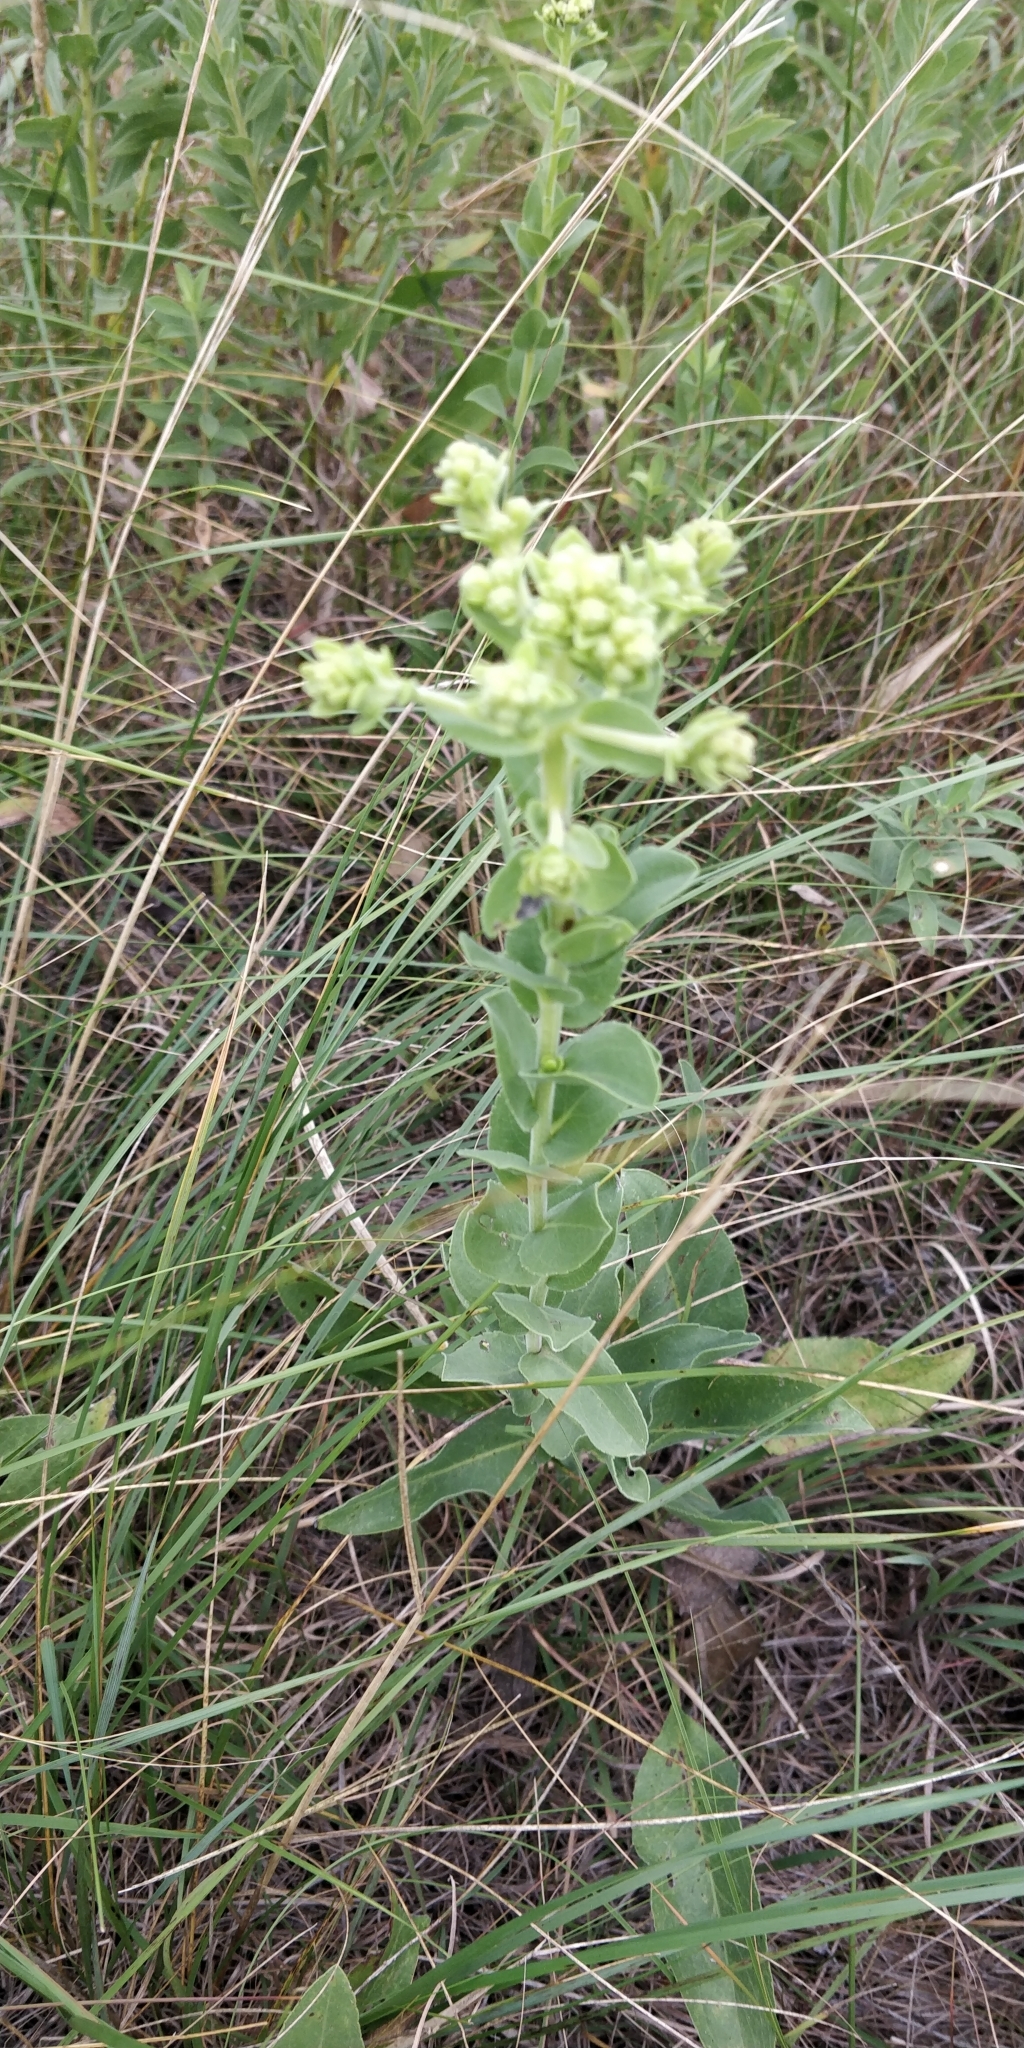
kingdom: Plantae
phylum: Tracheophyta
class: Magnoliopsida
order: Asterales
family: Asteraceae
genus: Solidago
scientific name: Solidago rigida
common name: Rigid goldenrod
